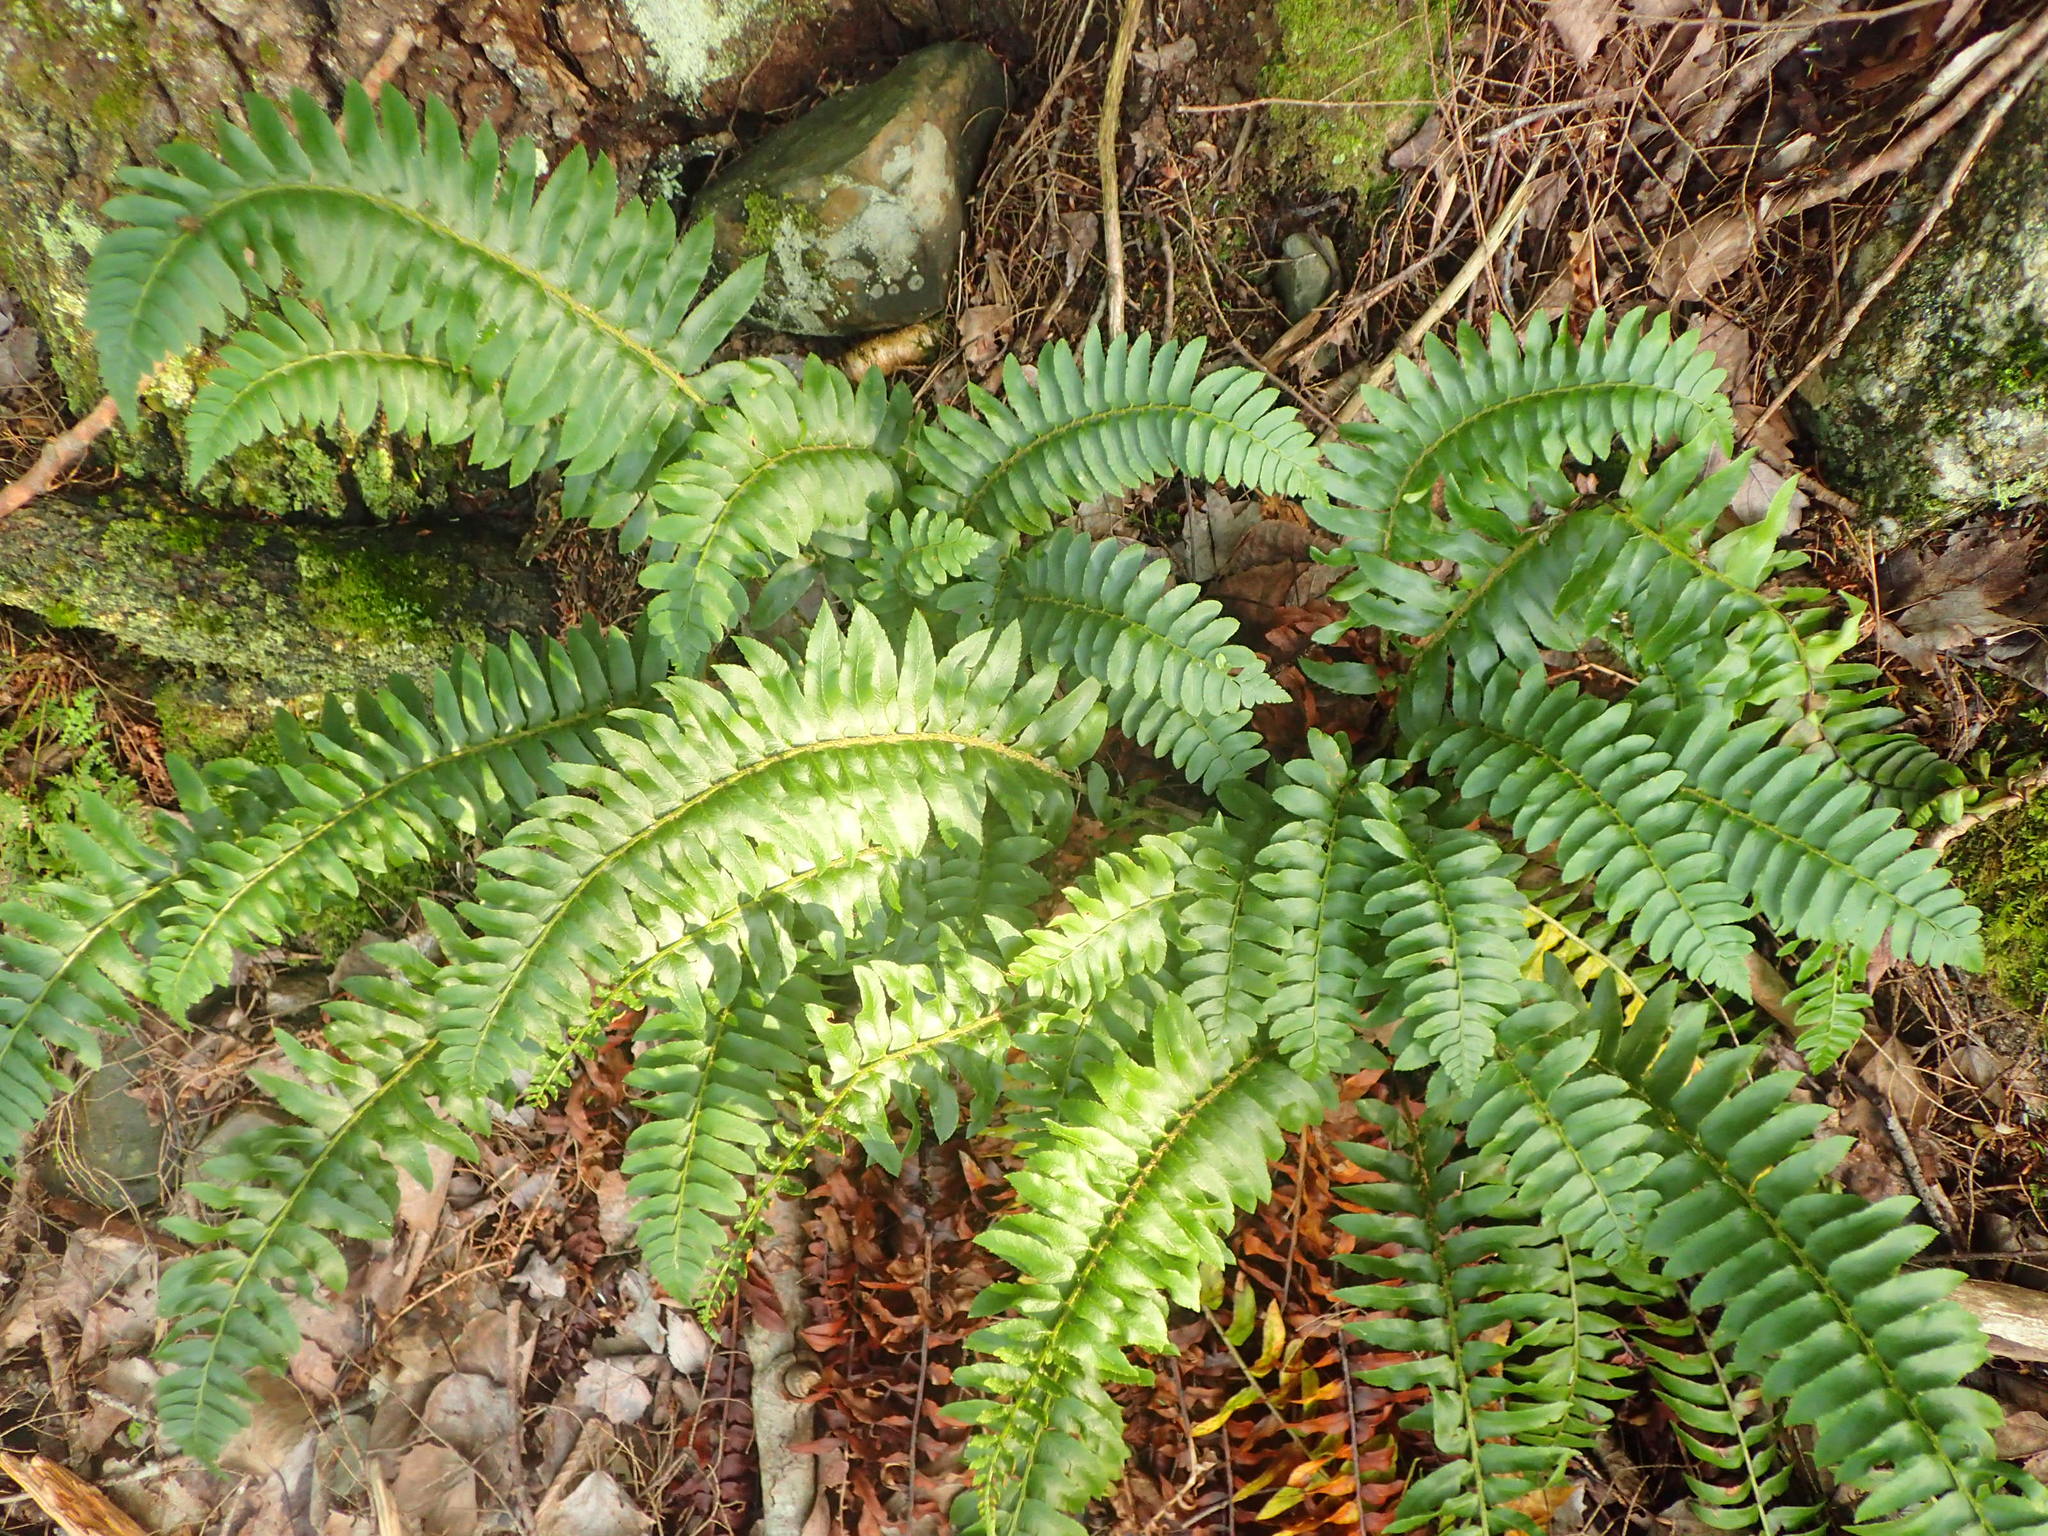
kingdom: Plantae
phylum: Tracheophyta
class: Polypodiopsida
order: Polypodiales
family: Dryopteridaceae
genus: Polystichum
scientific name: Polystichum acrostichoides
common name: Christmas fern
